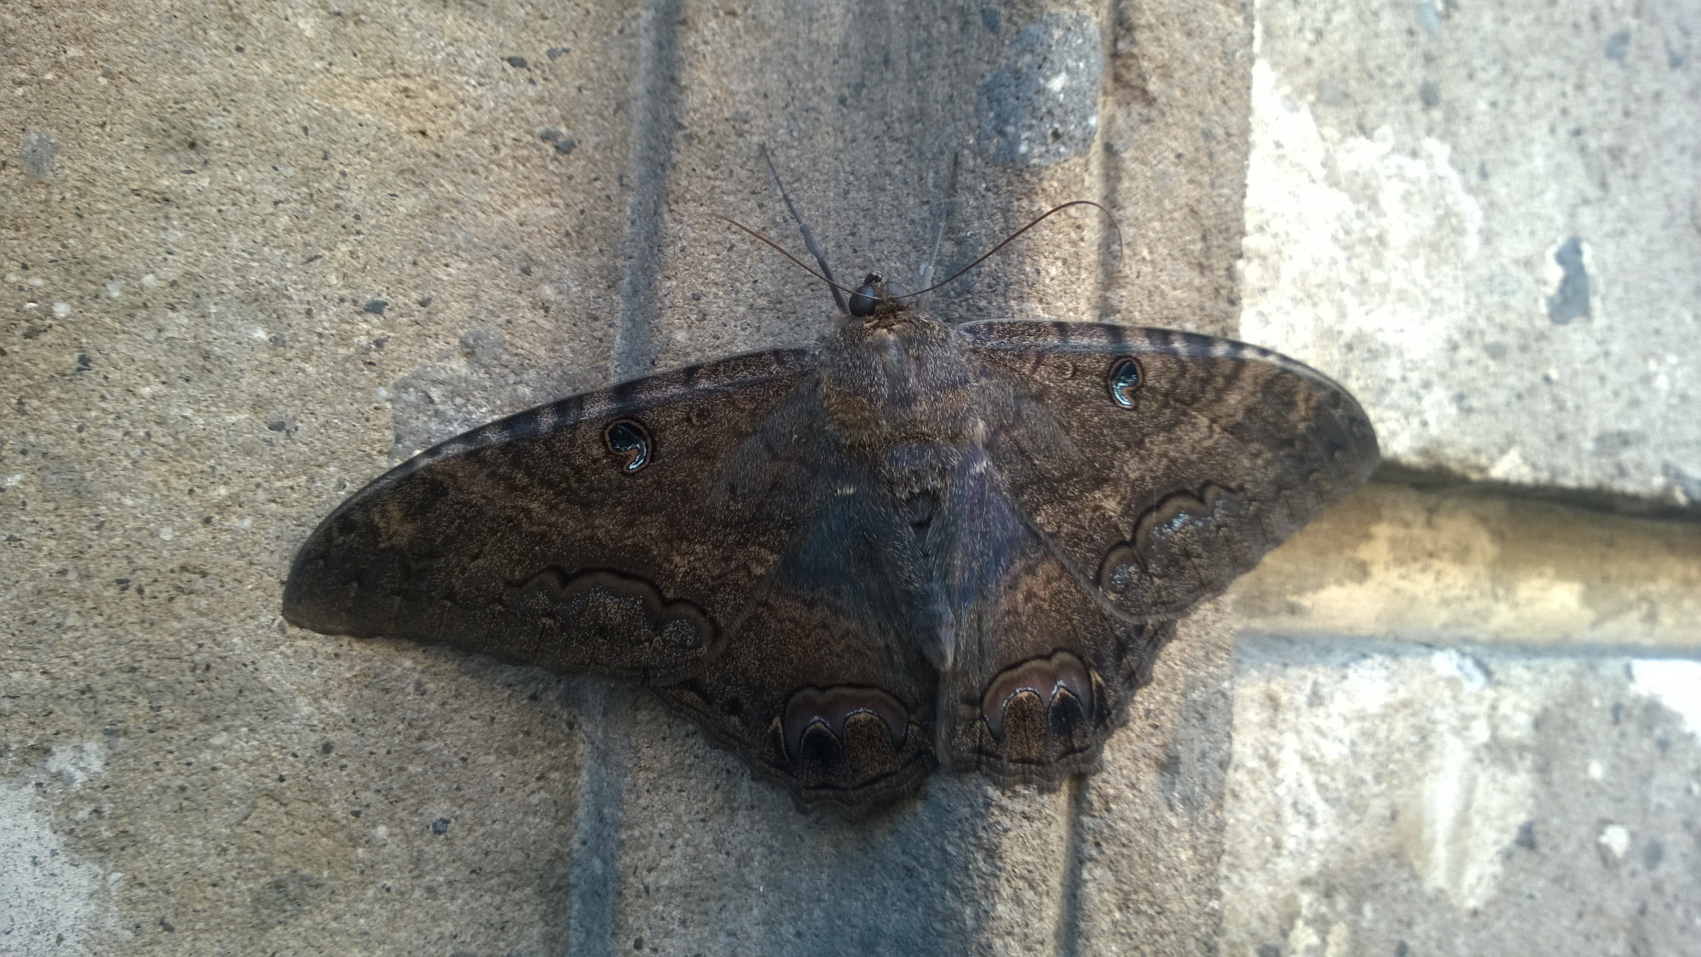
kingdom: Animalia
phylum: Arthropoda
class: Insecta
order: Lepidoptera
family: Erebidae
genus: Ascalapha
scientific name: Ascalapha odorata
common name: Black witch
